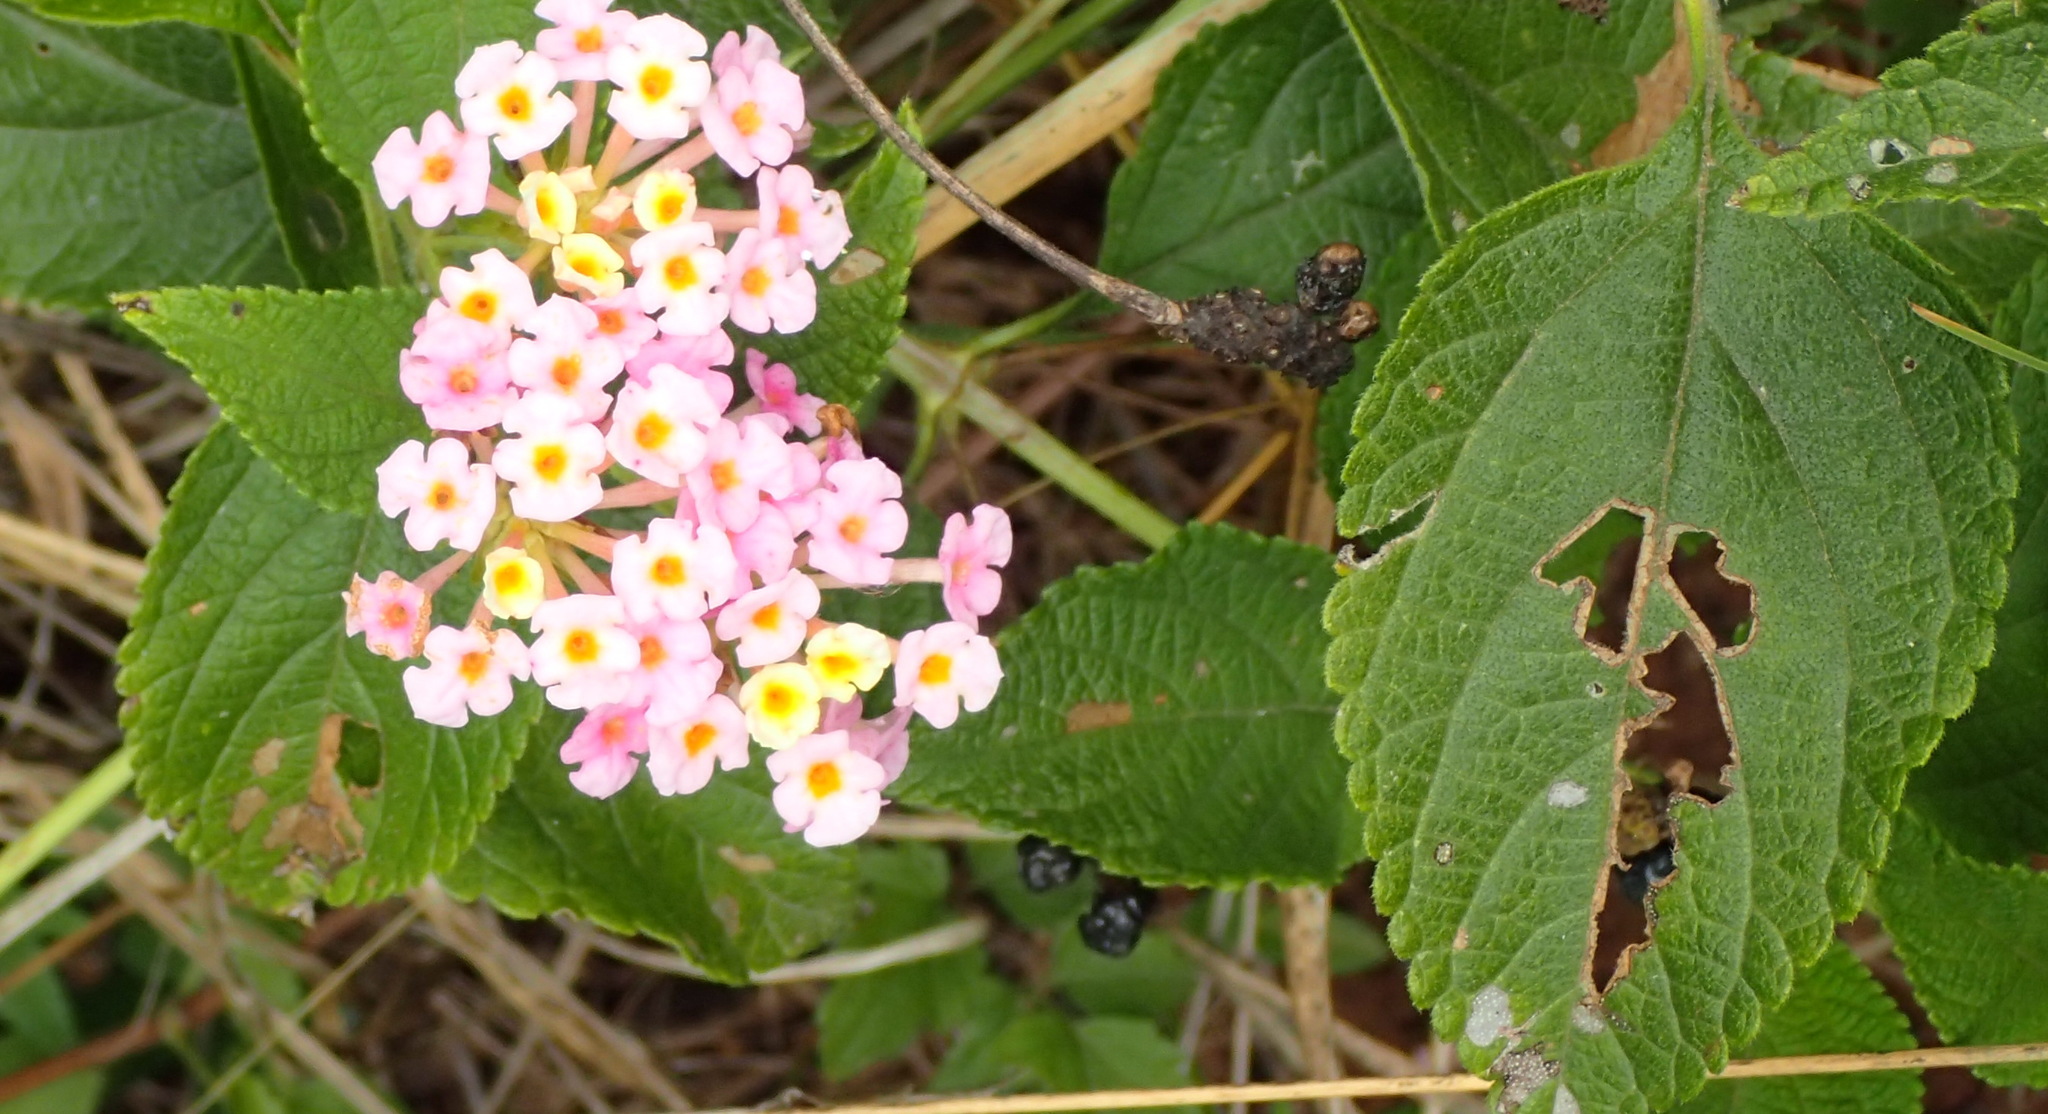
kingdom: Plantae
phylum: Tracheophyta
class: Magnoliopsida
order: Lamiales
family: Verbenaceae
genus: Lantana
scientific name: Lantana camara
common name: Lantana
